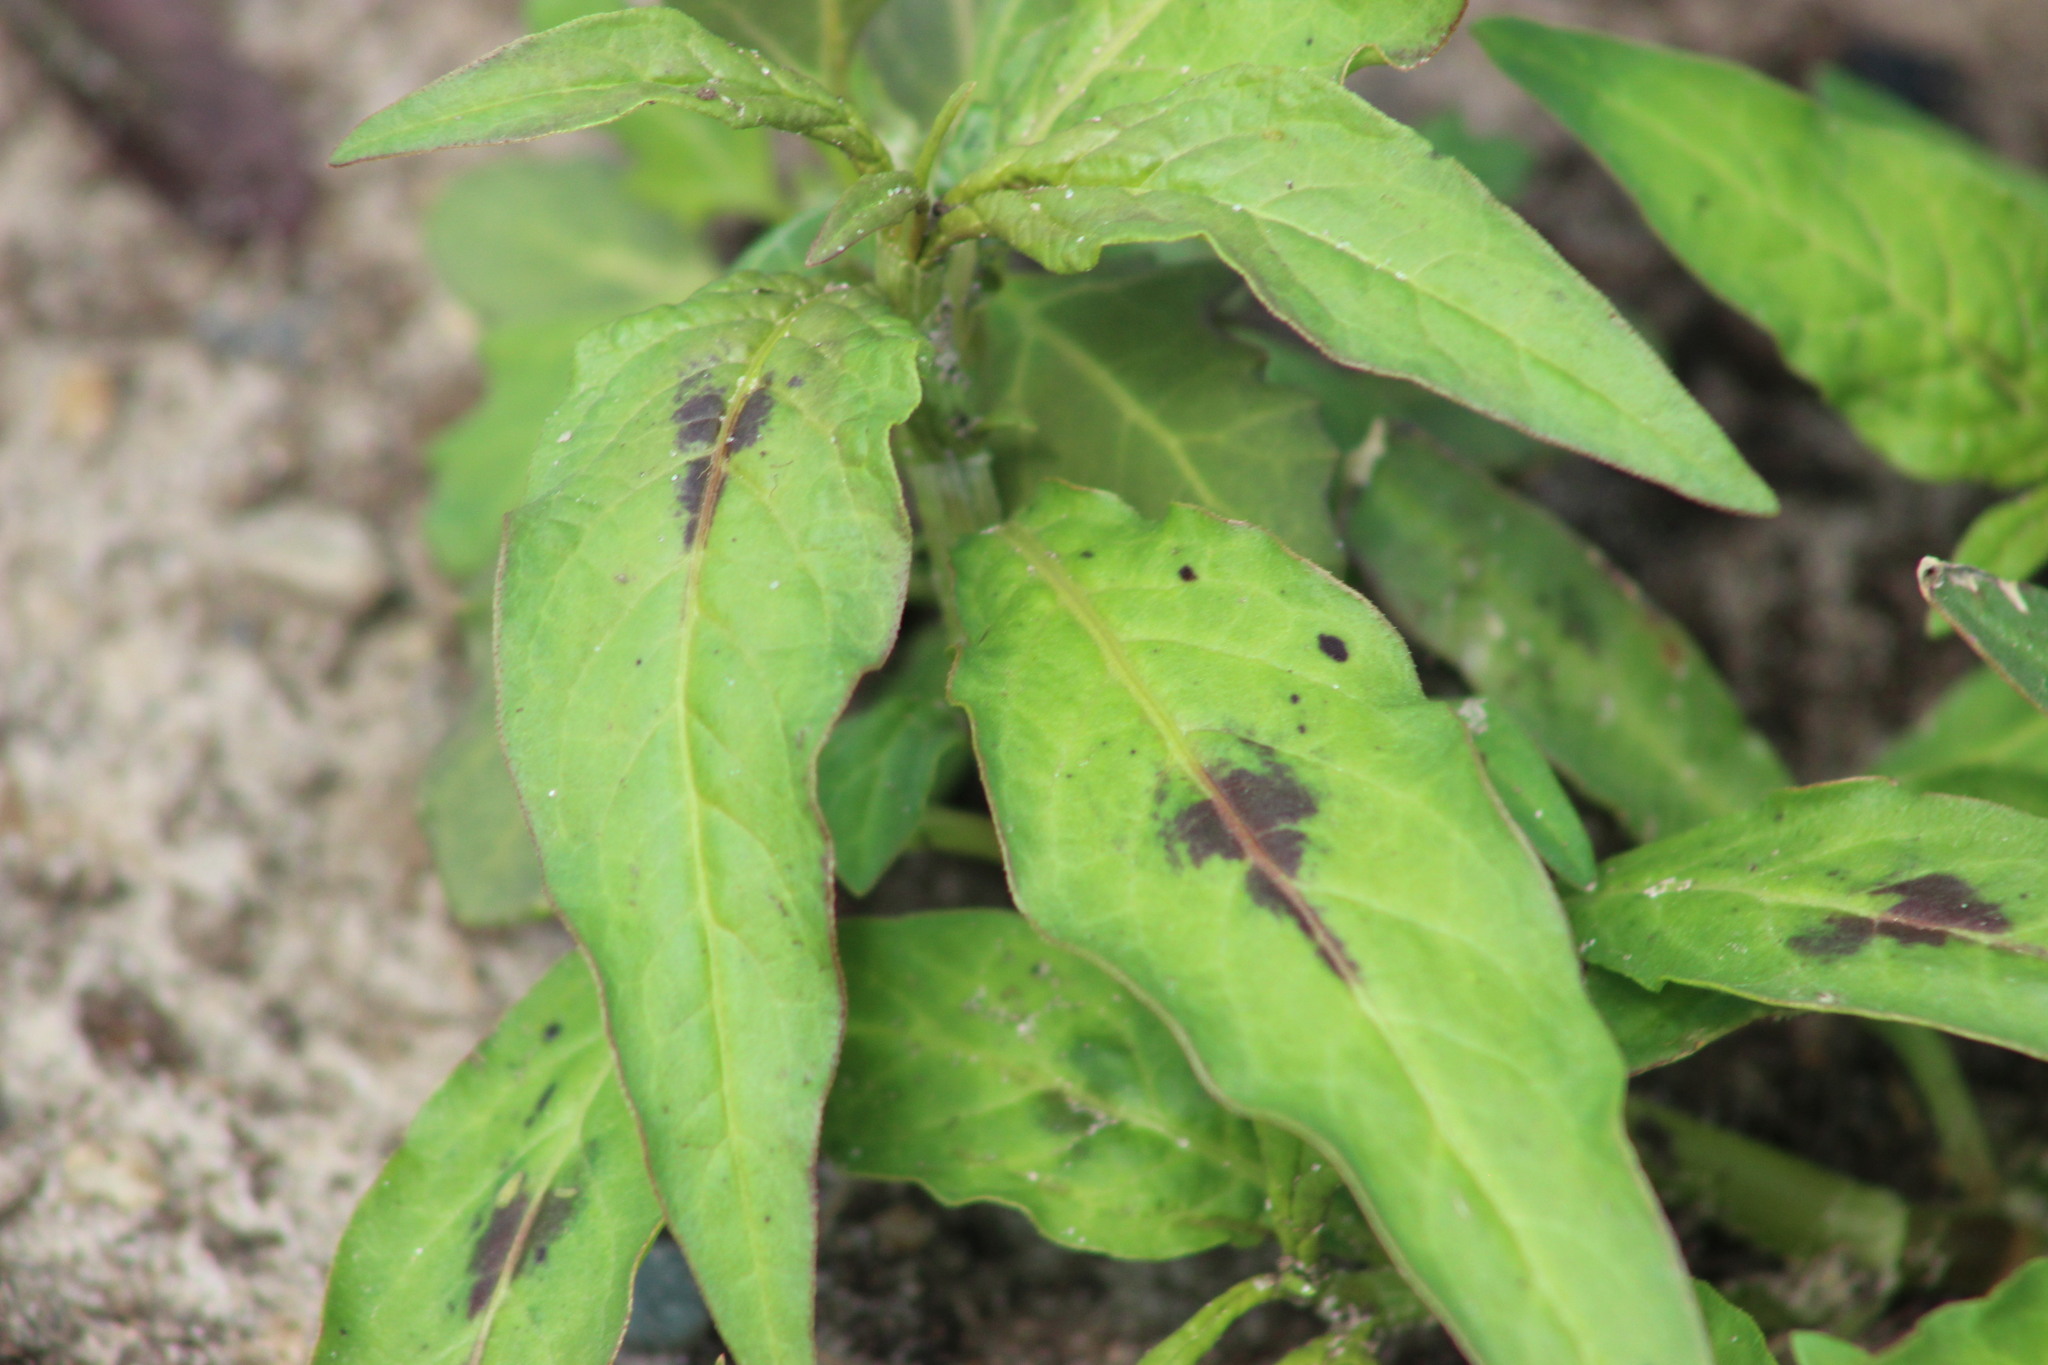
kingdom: Plantae
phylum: Tracheophyta
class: Magnoliopsida
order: Caryophyllales
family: Polygonaceae
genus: Persicaria
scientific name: Persicaria maculosa
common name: Redshank
